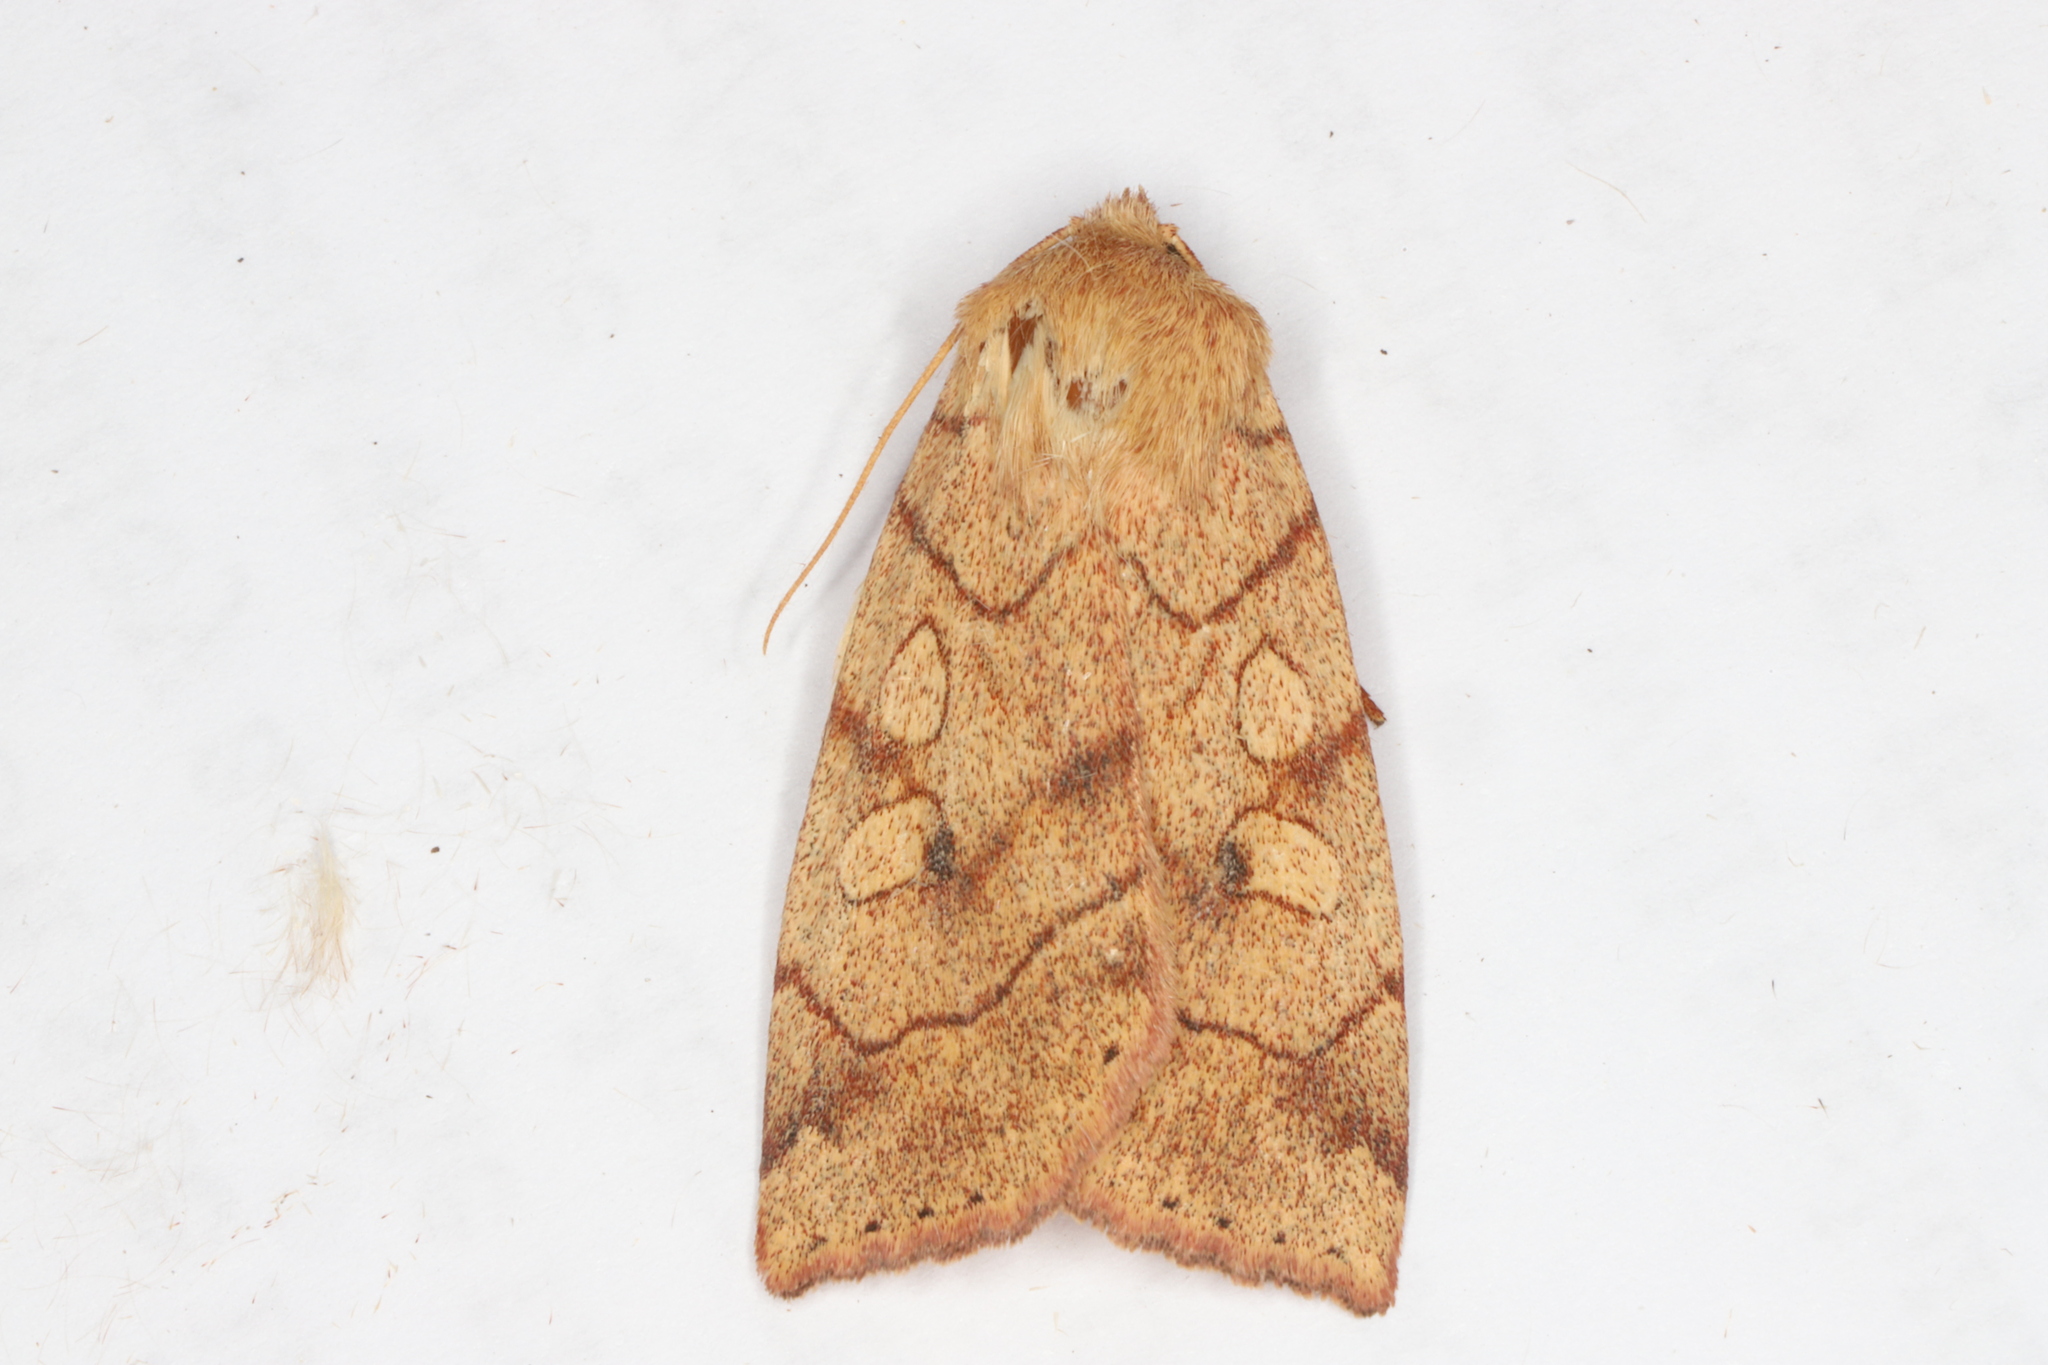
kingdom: Animalia
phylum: Arthropoda
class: Insecta
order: Lepidoptera
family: Noctuidae
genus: Enargia
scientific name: Enargia fausta
